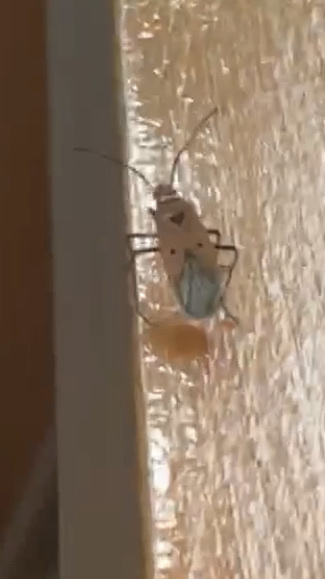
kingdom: Animalia
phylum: Arthropoda
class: Insecta
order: Hemiptera
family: Pyrrhocoridae
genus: Dysdercus
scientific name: Dysdercus sidae
